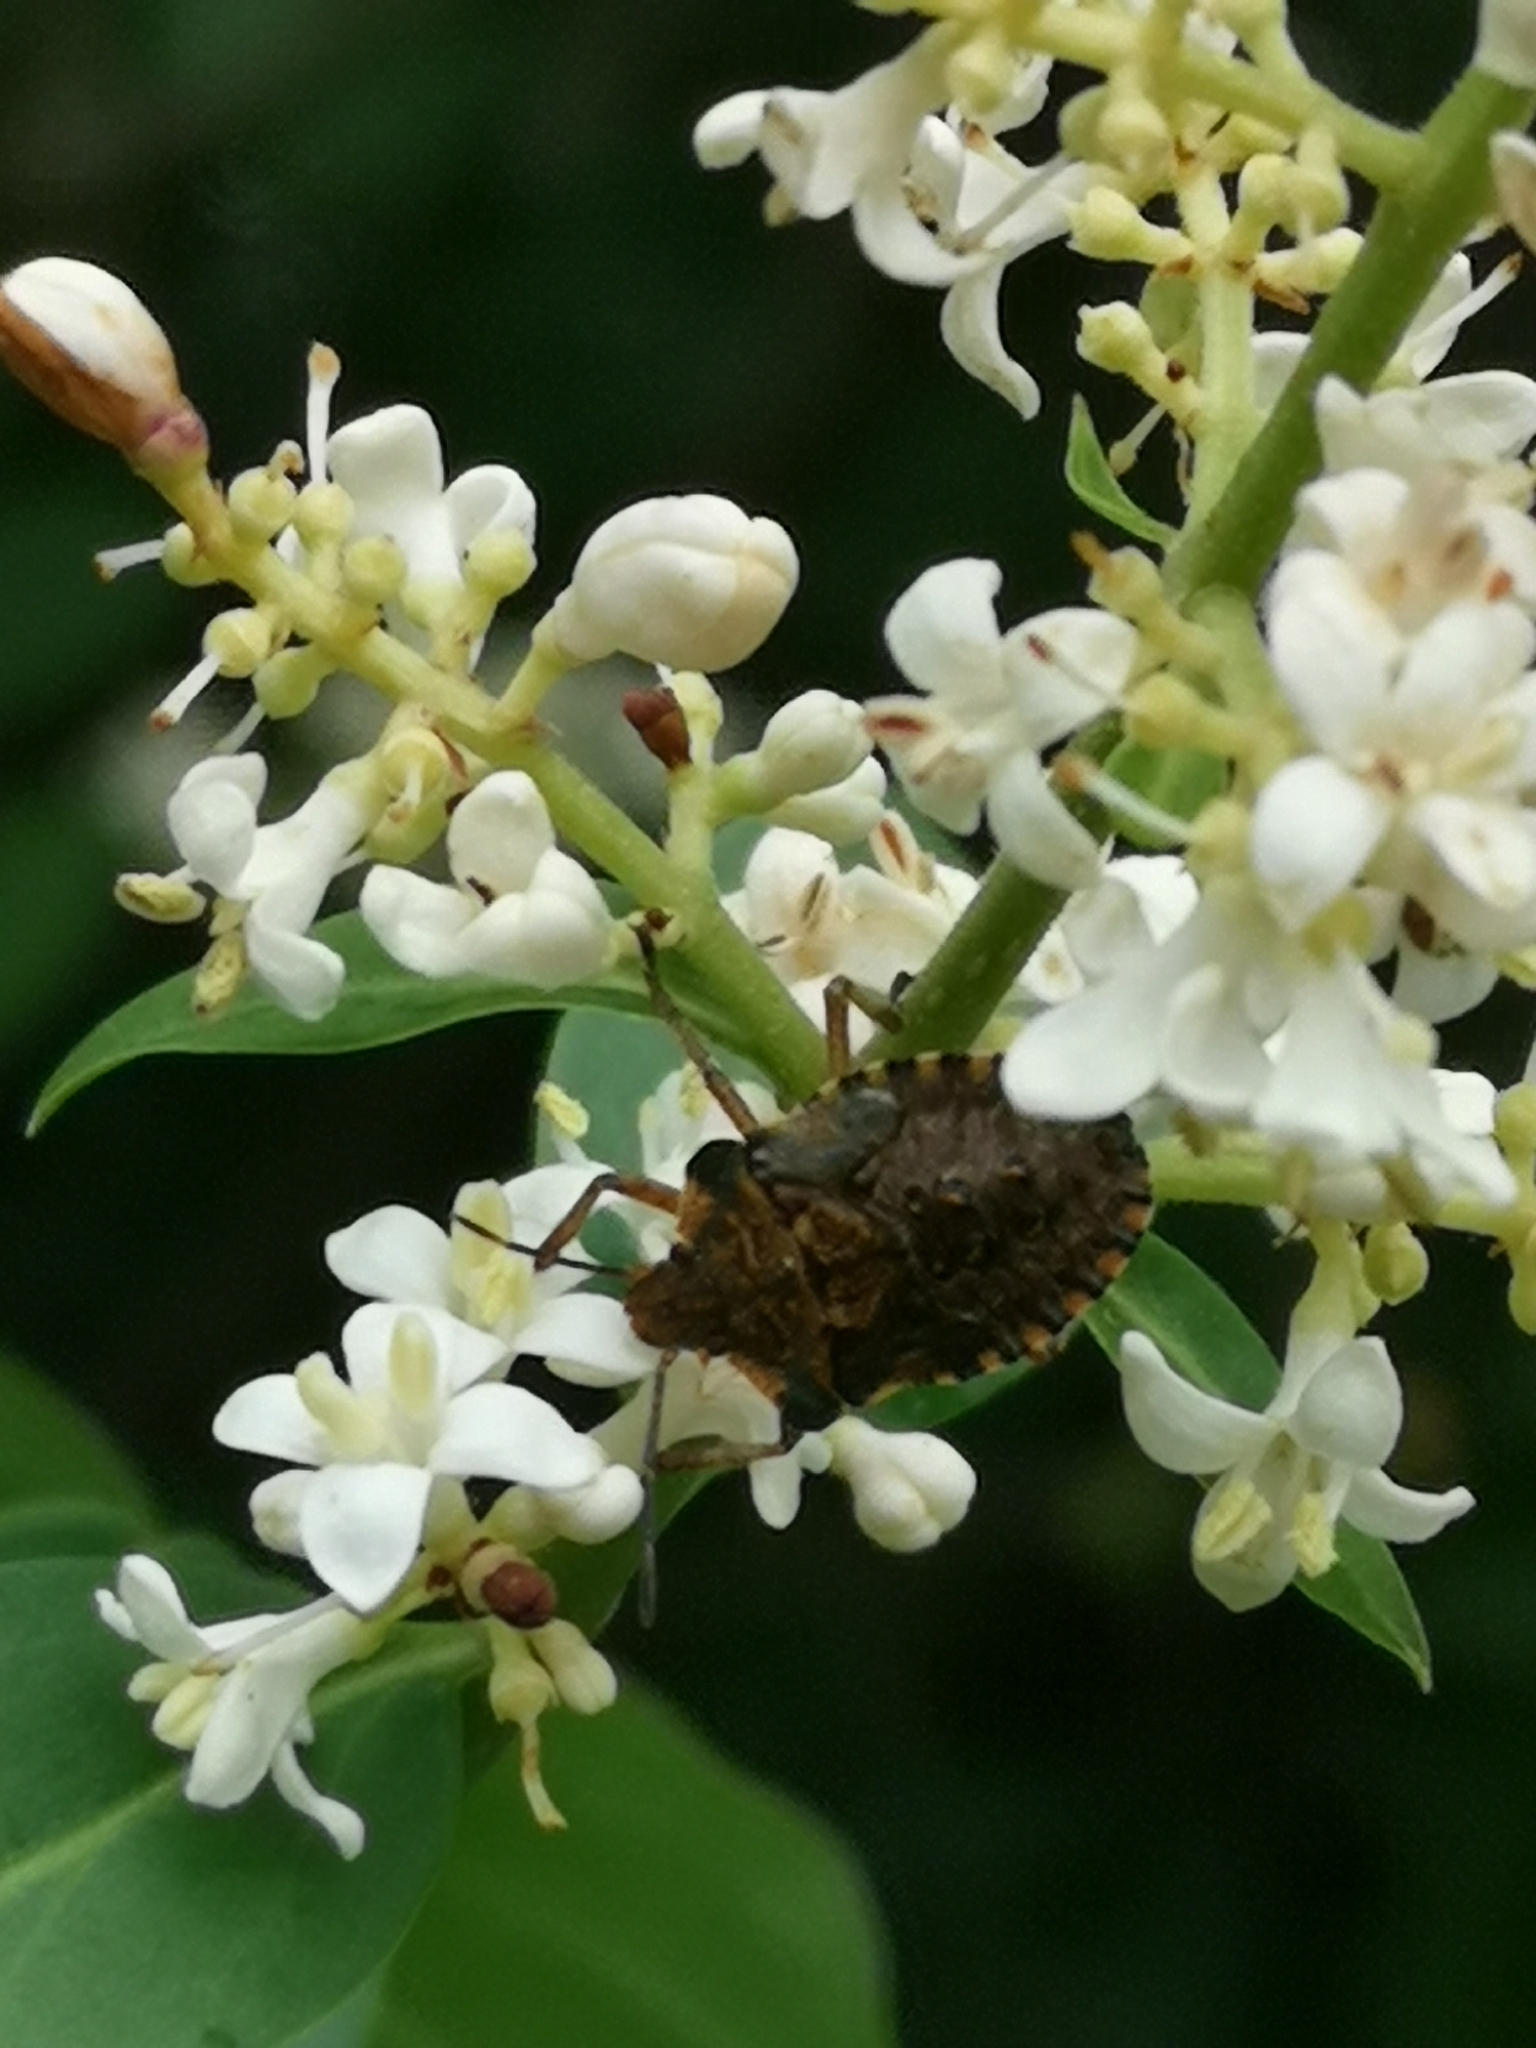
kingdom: Animalia
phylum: Arthropoda
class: Insecta
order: Hemiptera
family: Pentatomidae
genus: Pentatoma
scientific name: Pentatoma rufipes
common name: Forest bug
